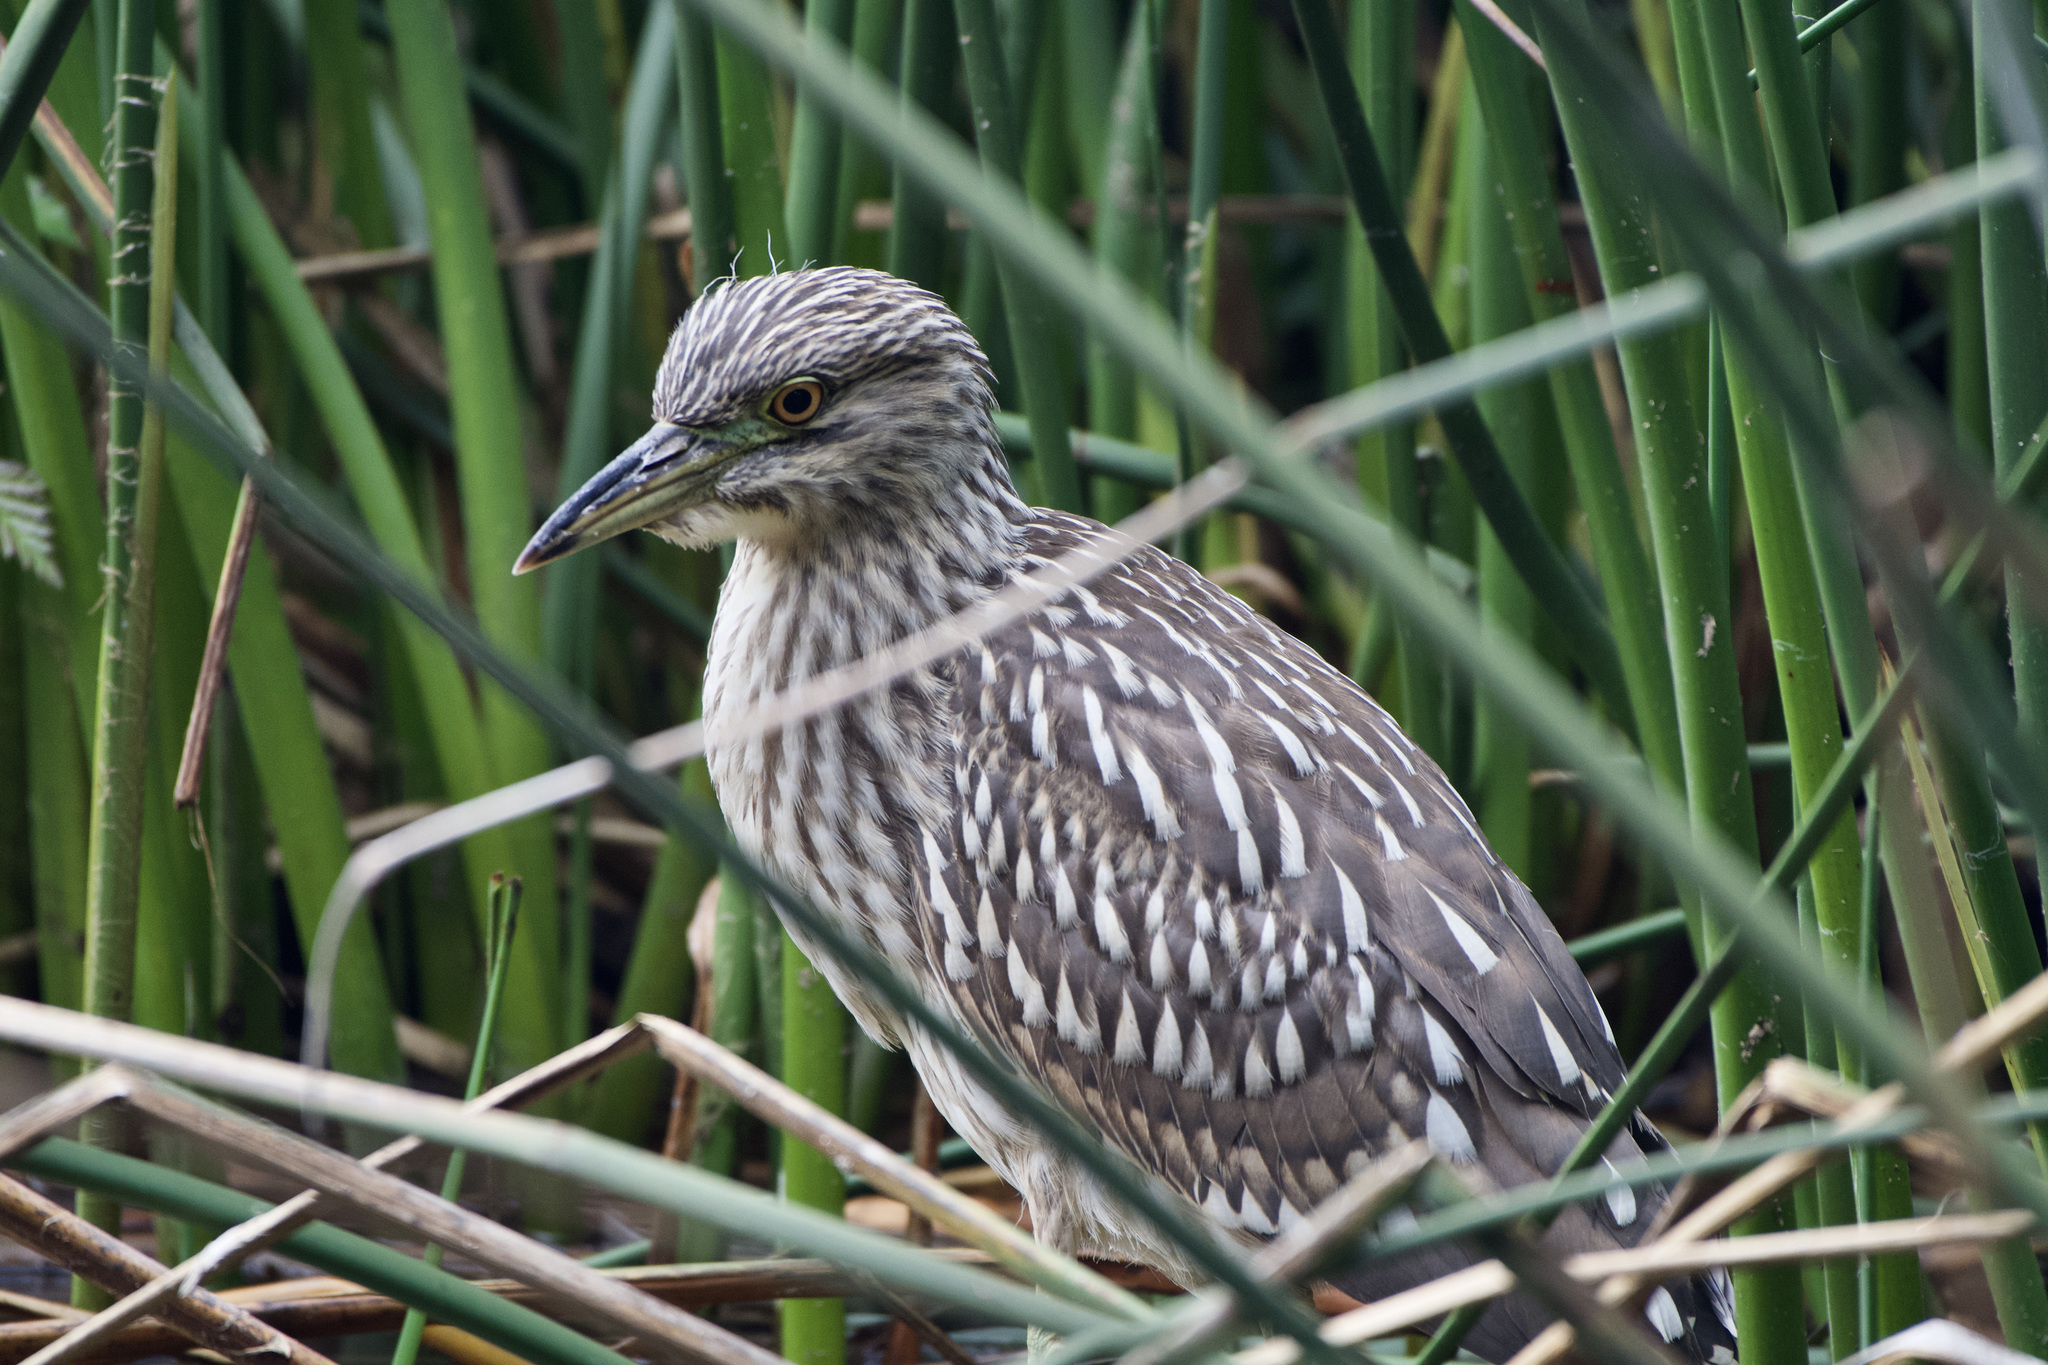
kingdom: Animalia
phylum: Chordata
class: Aves
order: Pelecaniformes
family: Ardeidae
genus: Nycticorax
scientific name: Nycticorax nycticorax
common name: Black-crowned night heron
